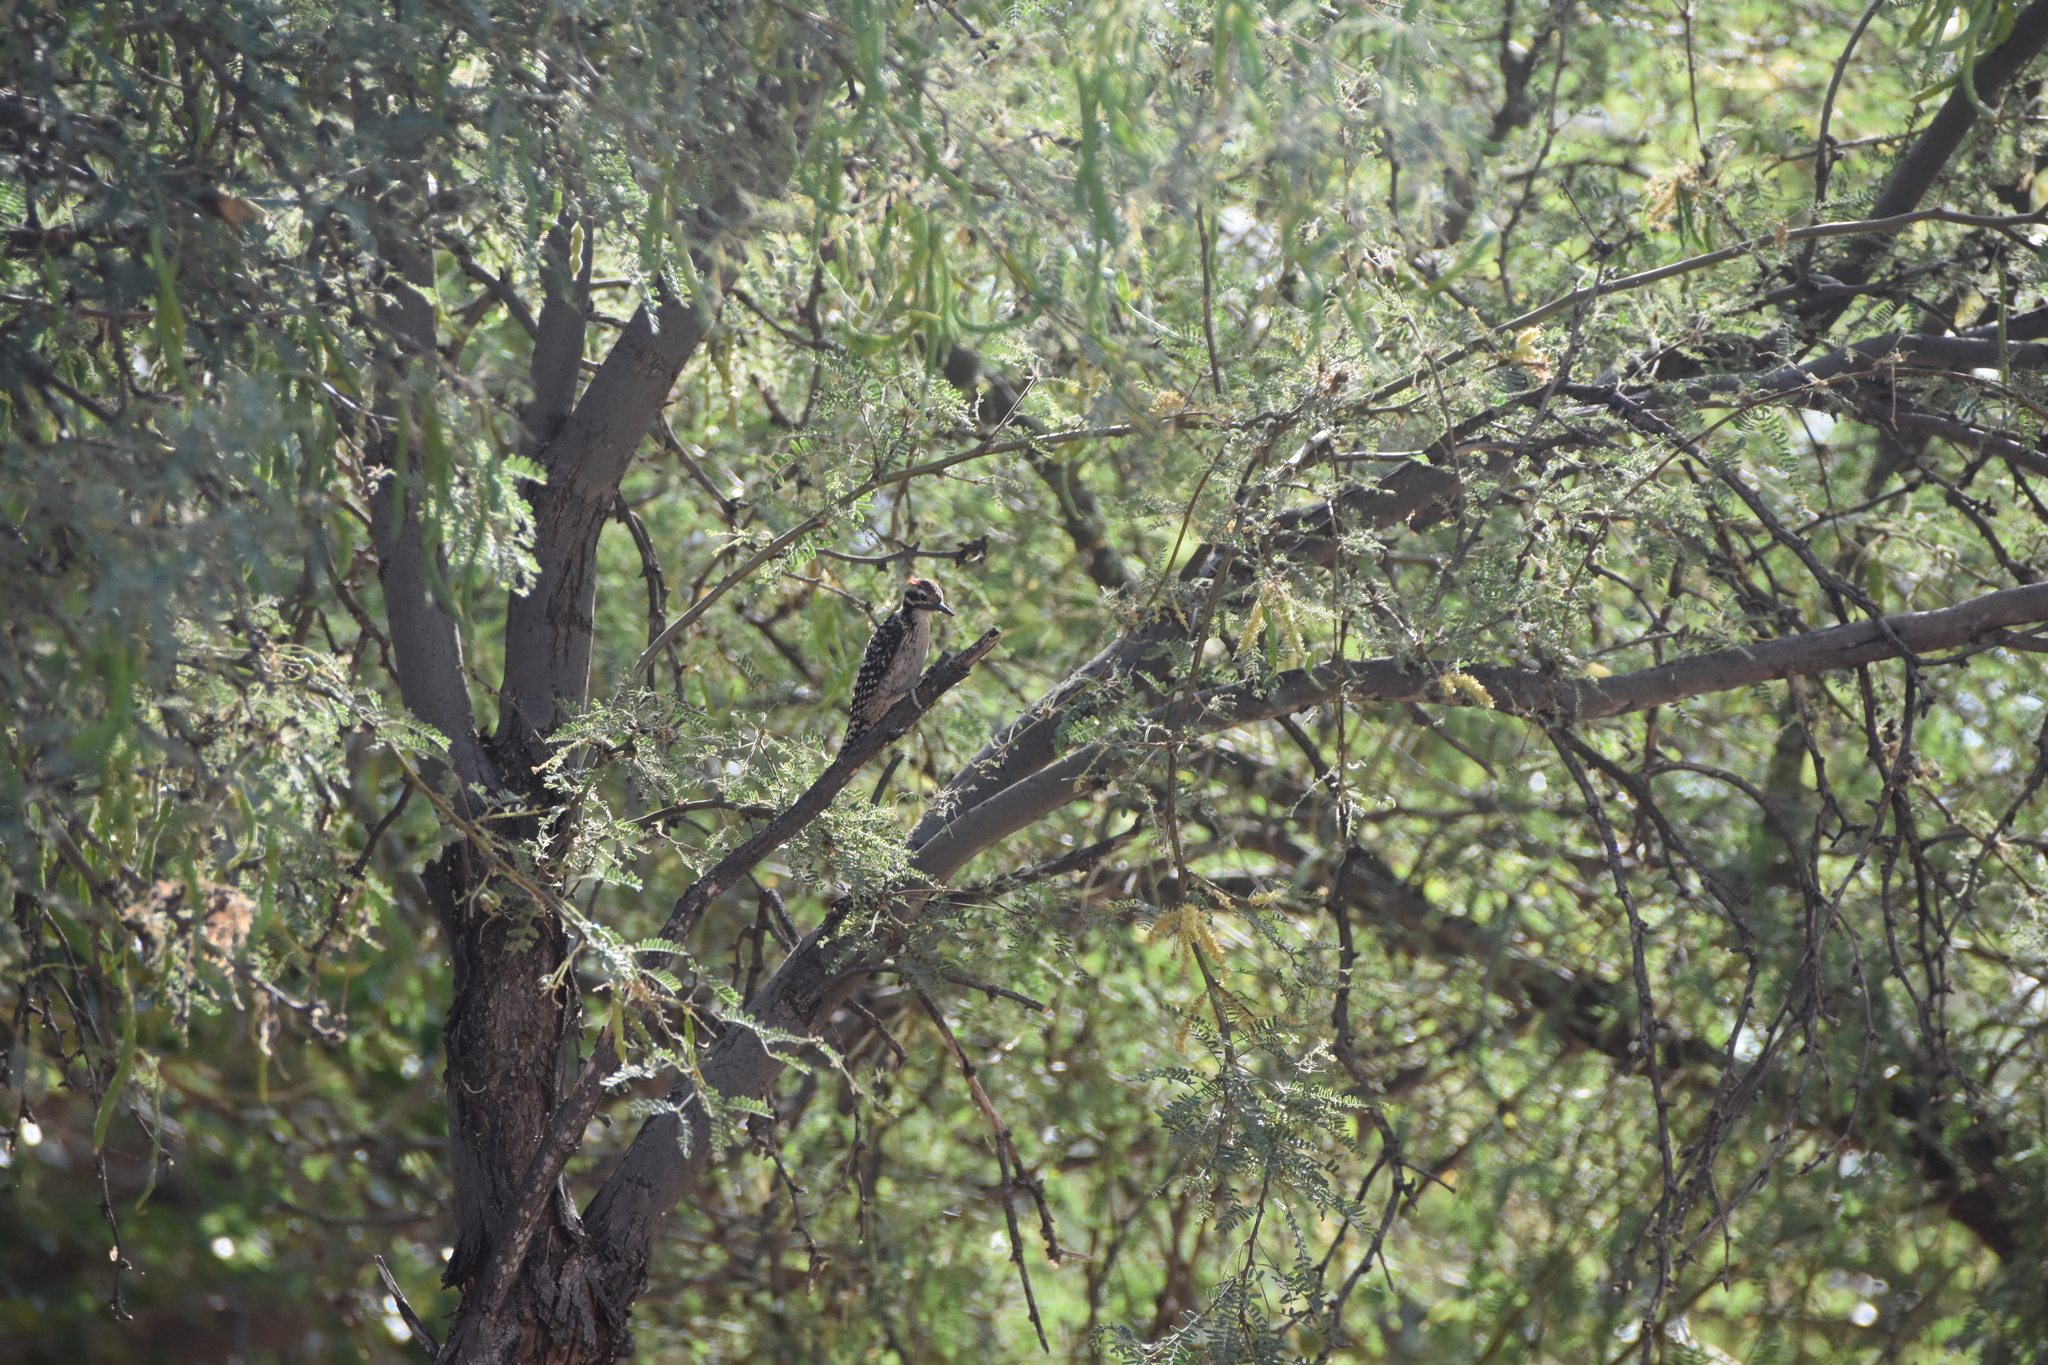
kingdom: Animalia
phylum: Chordata
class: Aves
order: Piciformes
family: Picidae
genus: Dryobates
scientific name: Dryobates scalaris
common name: Ladder-backed woodpecker
